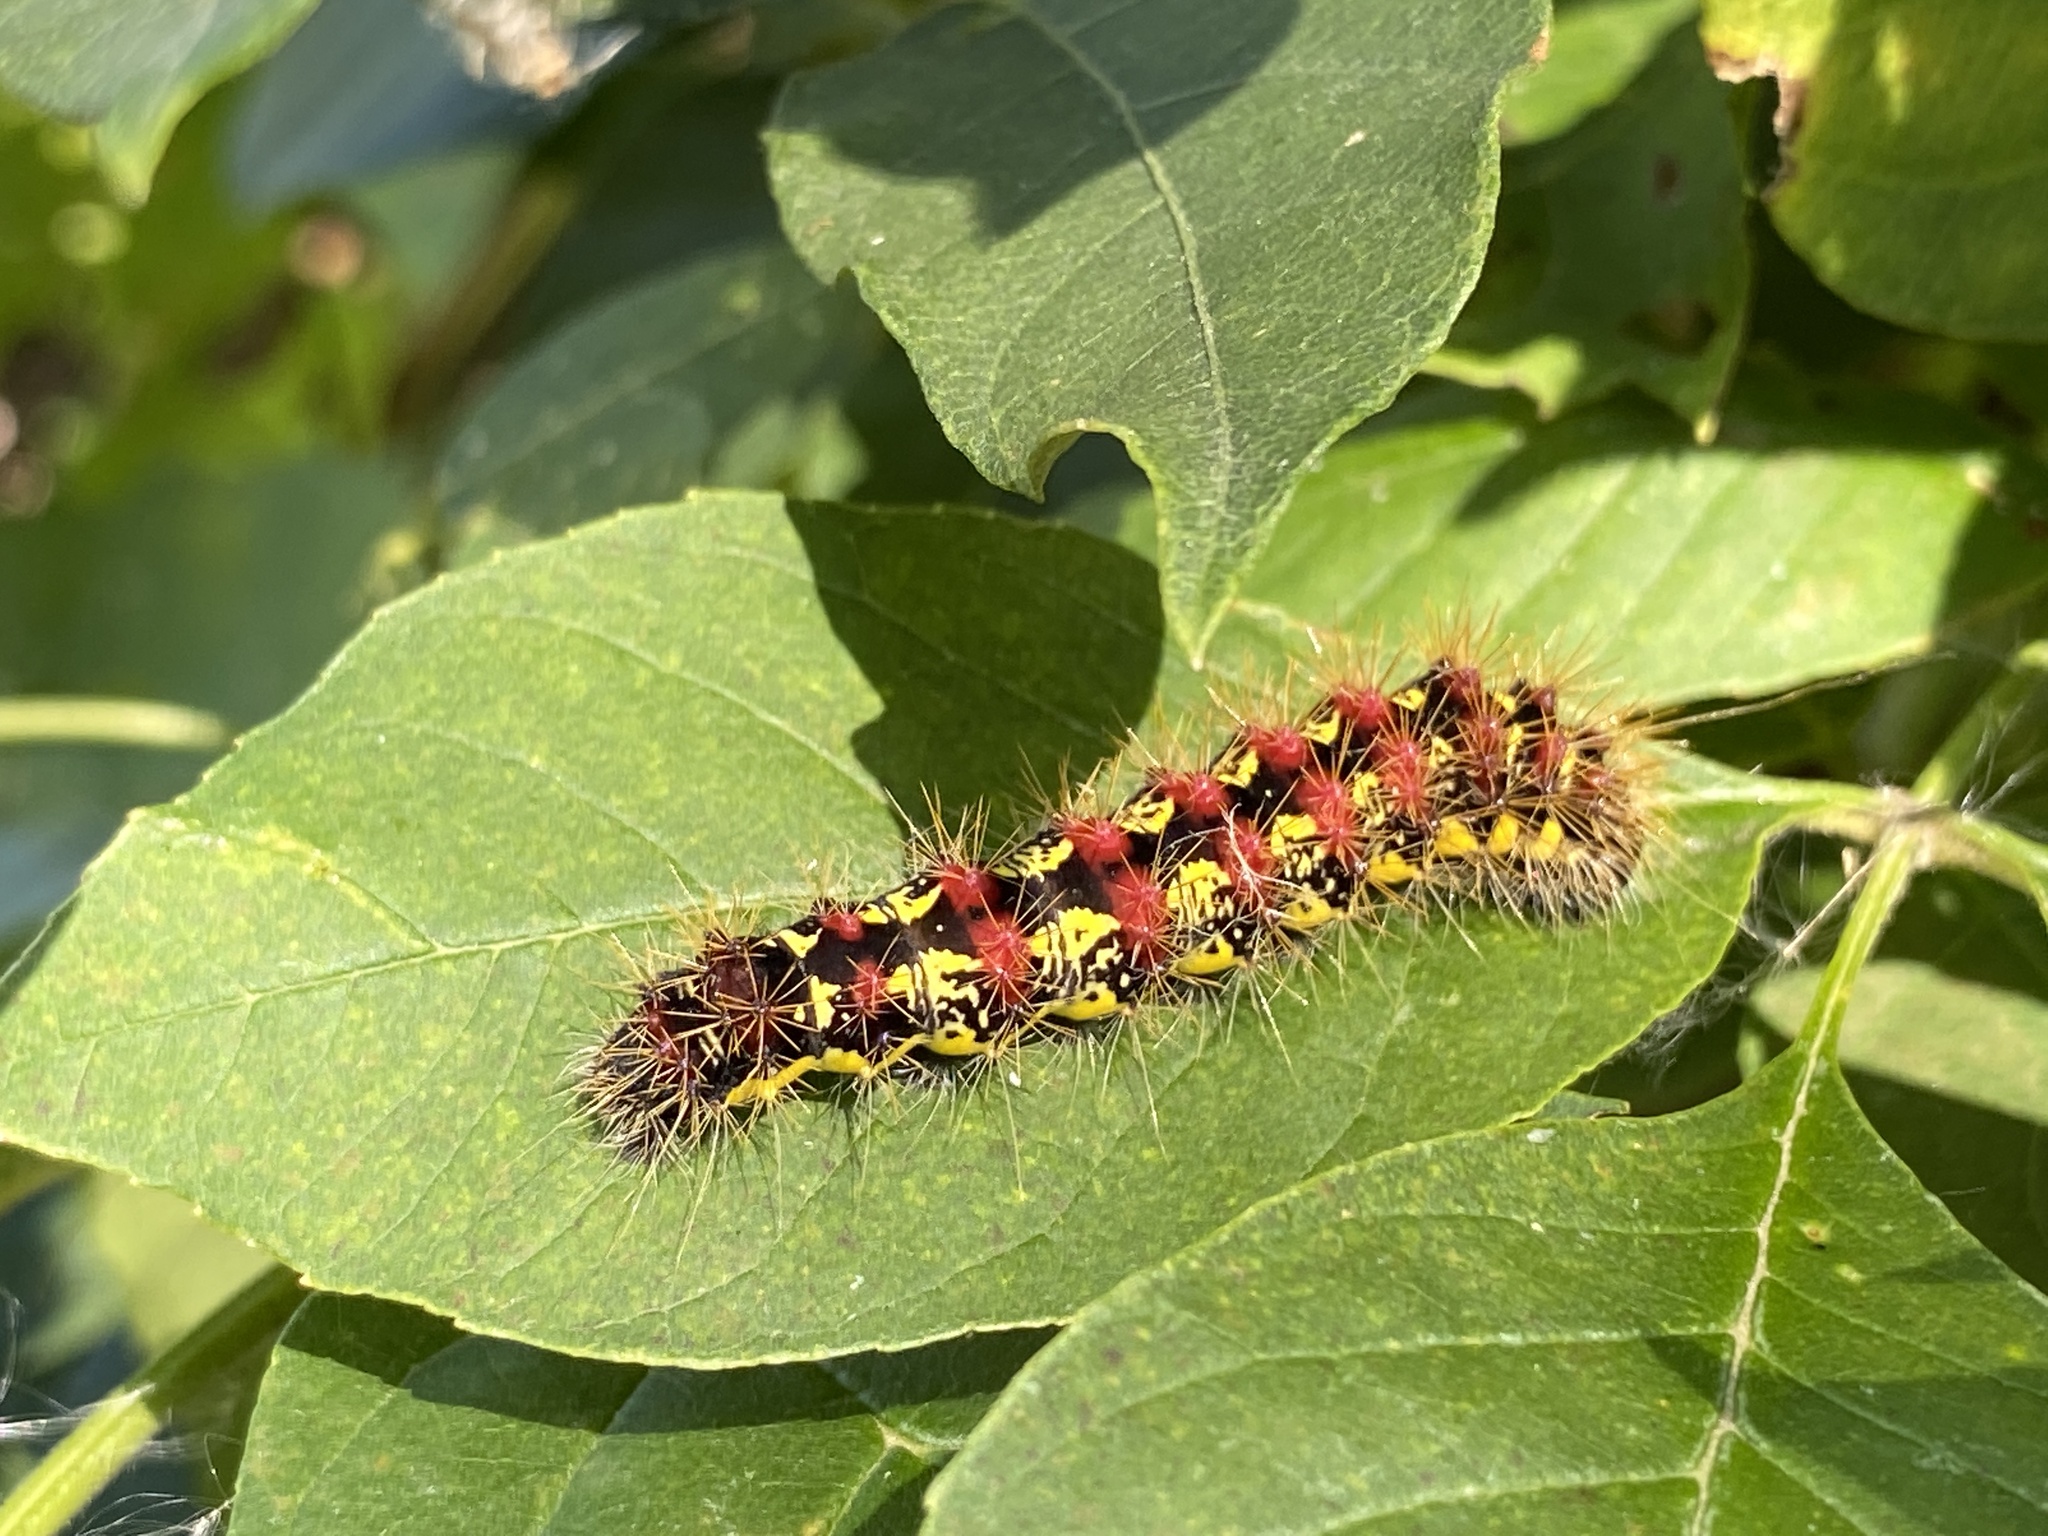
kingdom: Animalia
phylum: Arthropoda
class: Insecta
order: Lepidoptera
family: Noctuidae
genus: Acronicta
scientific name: Acronicta oblinita
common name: Smeared dagger
